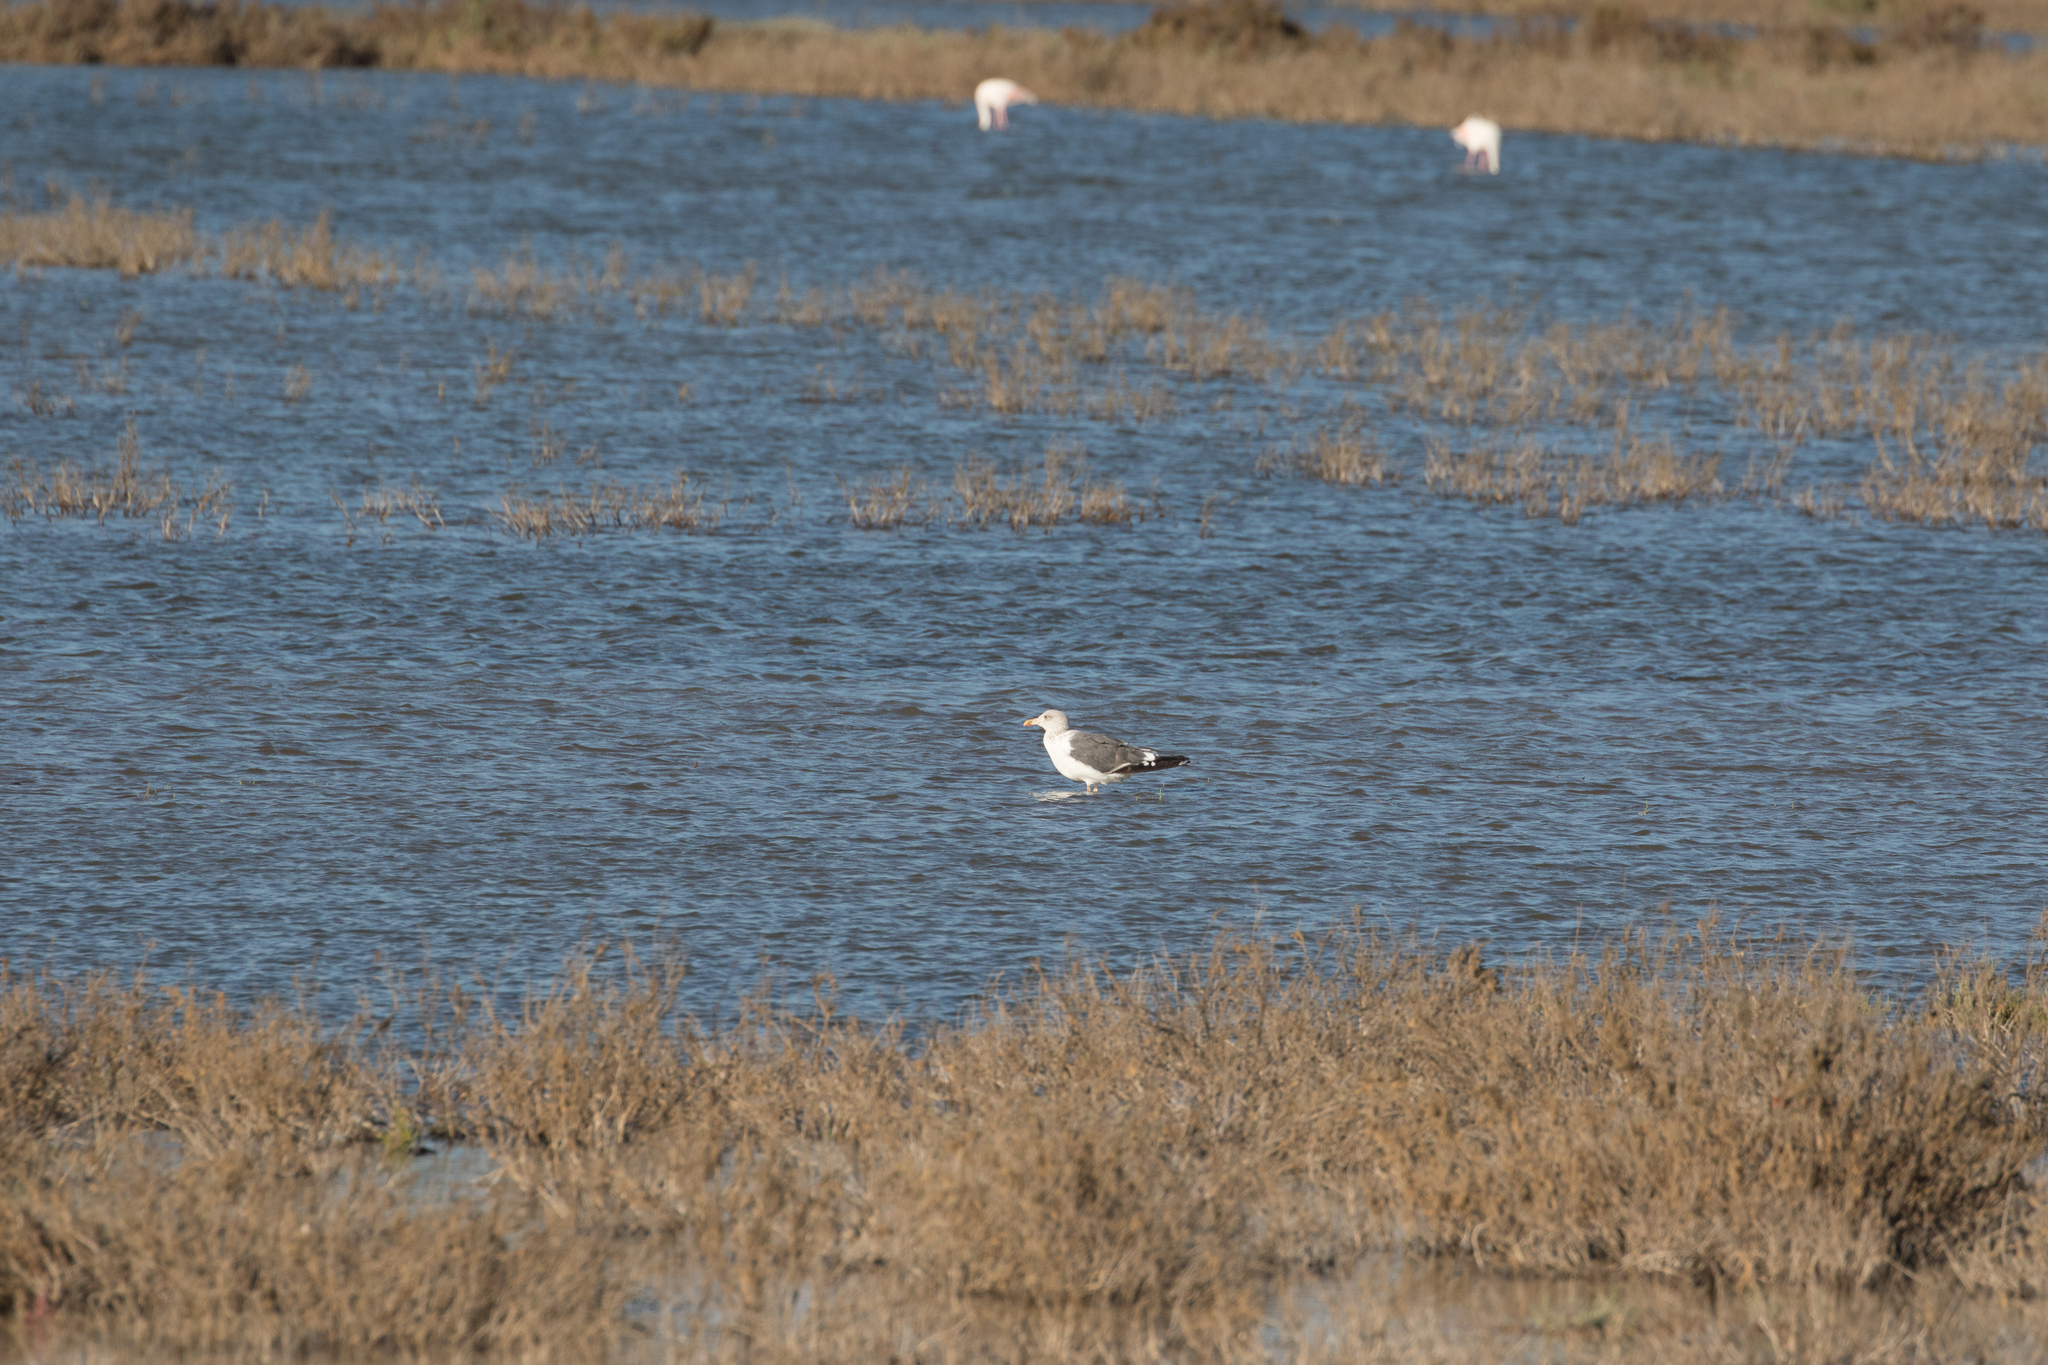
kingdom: Animalia
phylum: Chordata
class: Aves
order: Charadriiformes
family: Laridae
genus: Larus
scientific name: Larus fuscus
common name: Lesser black-backed gull
